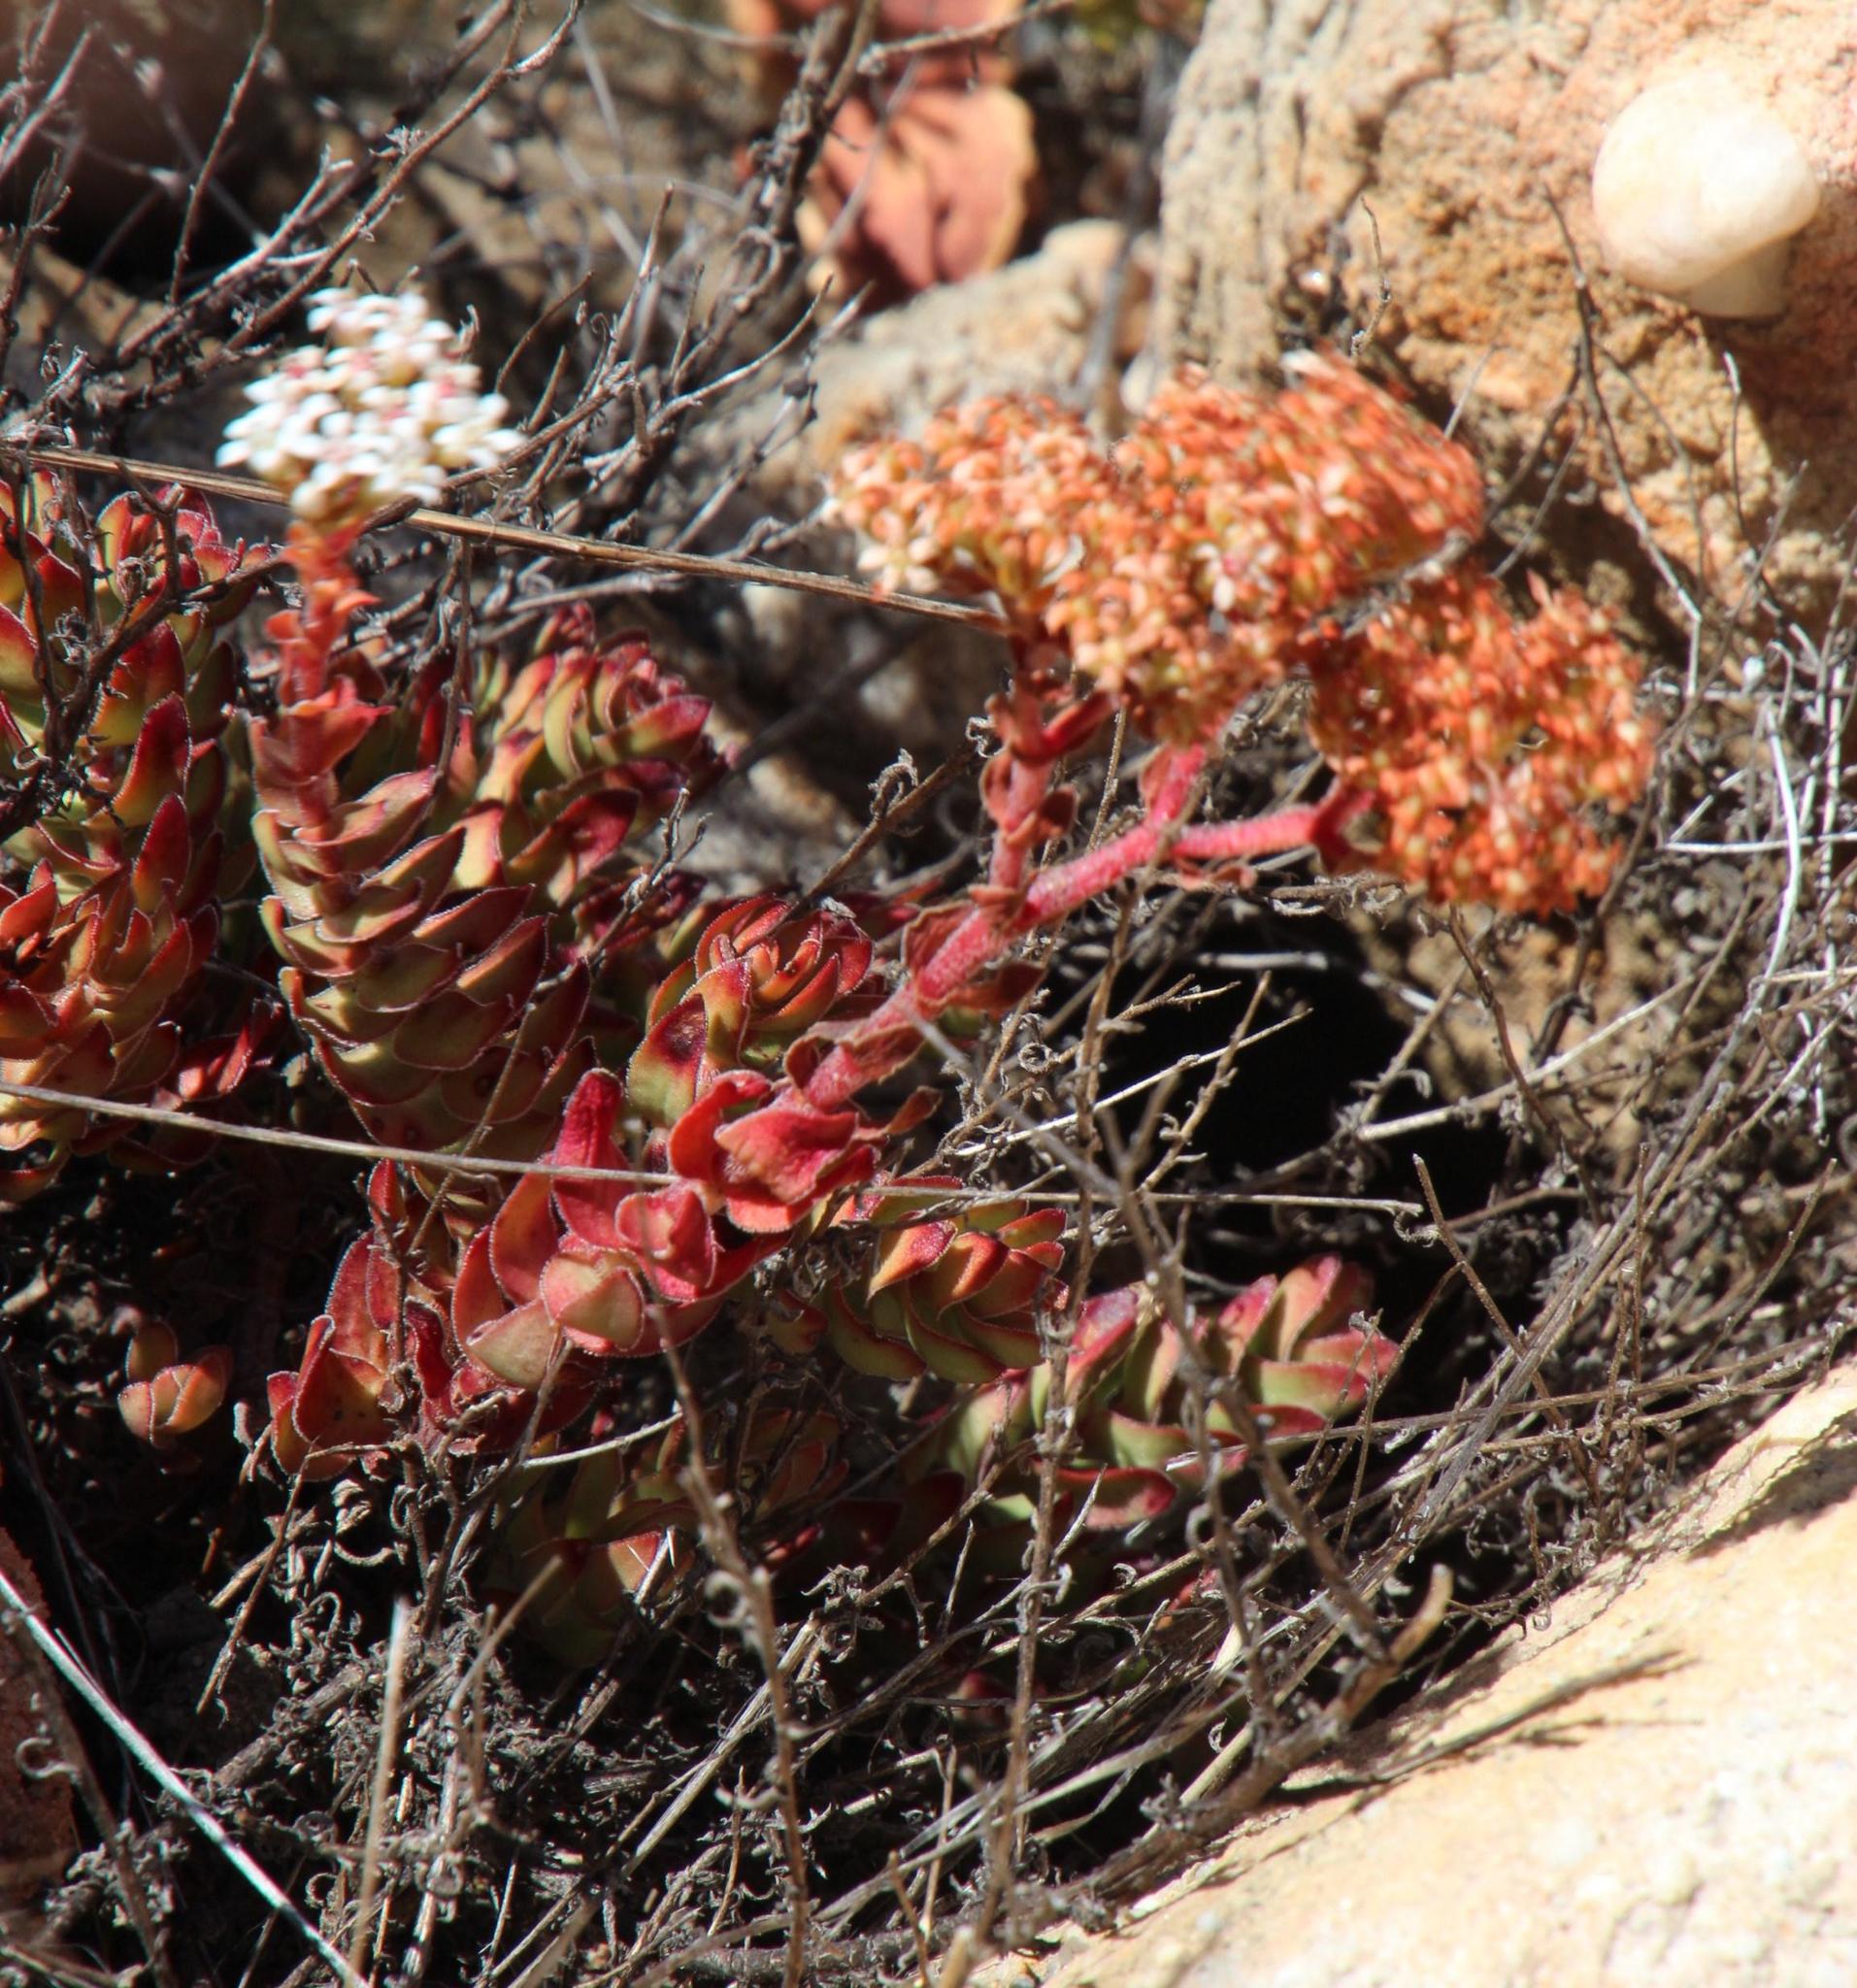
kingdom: Plantae
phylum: Tracheophyta
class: Magnoliopsida
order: Saxifragales
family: Crassulaceae
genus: Crassula
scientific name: Crassula undulata
